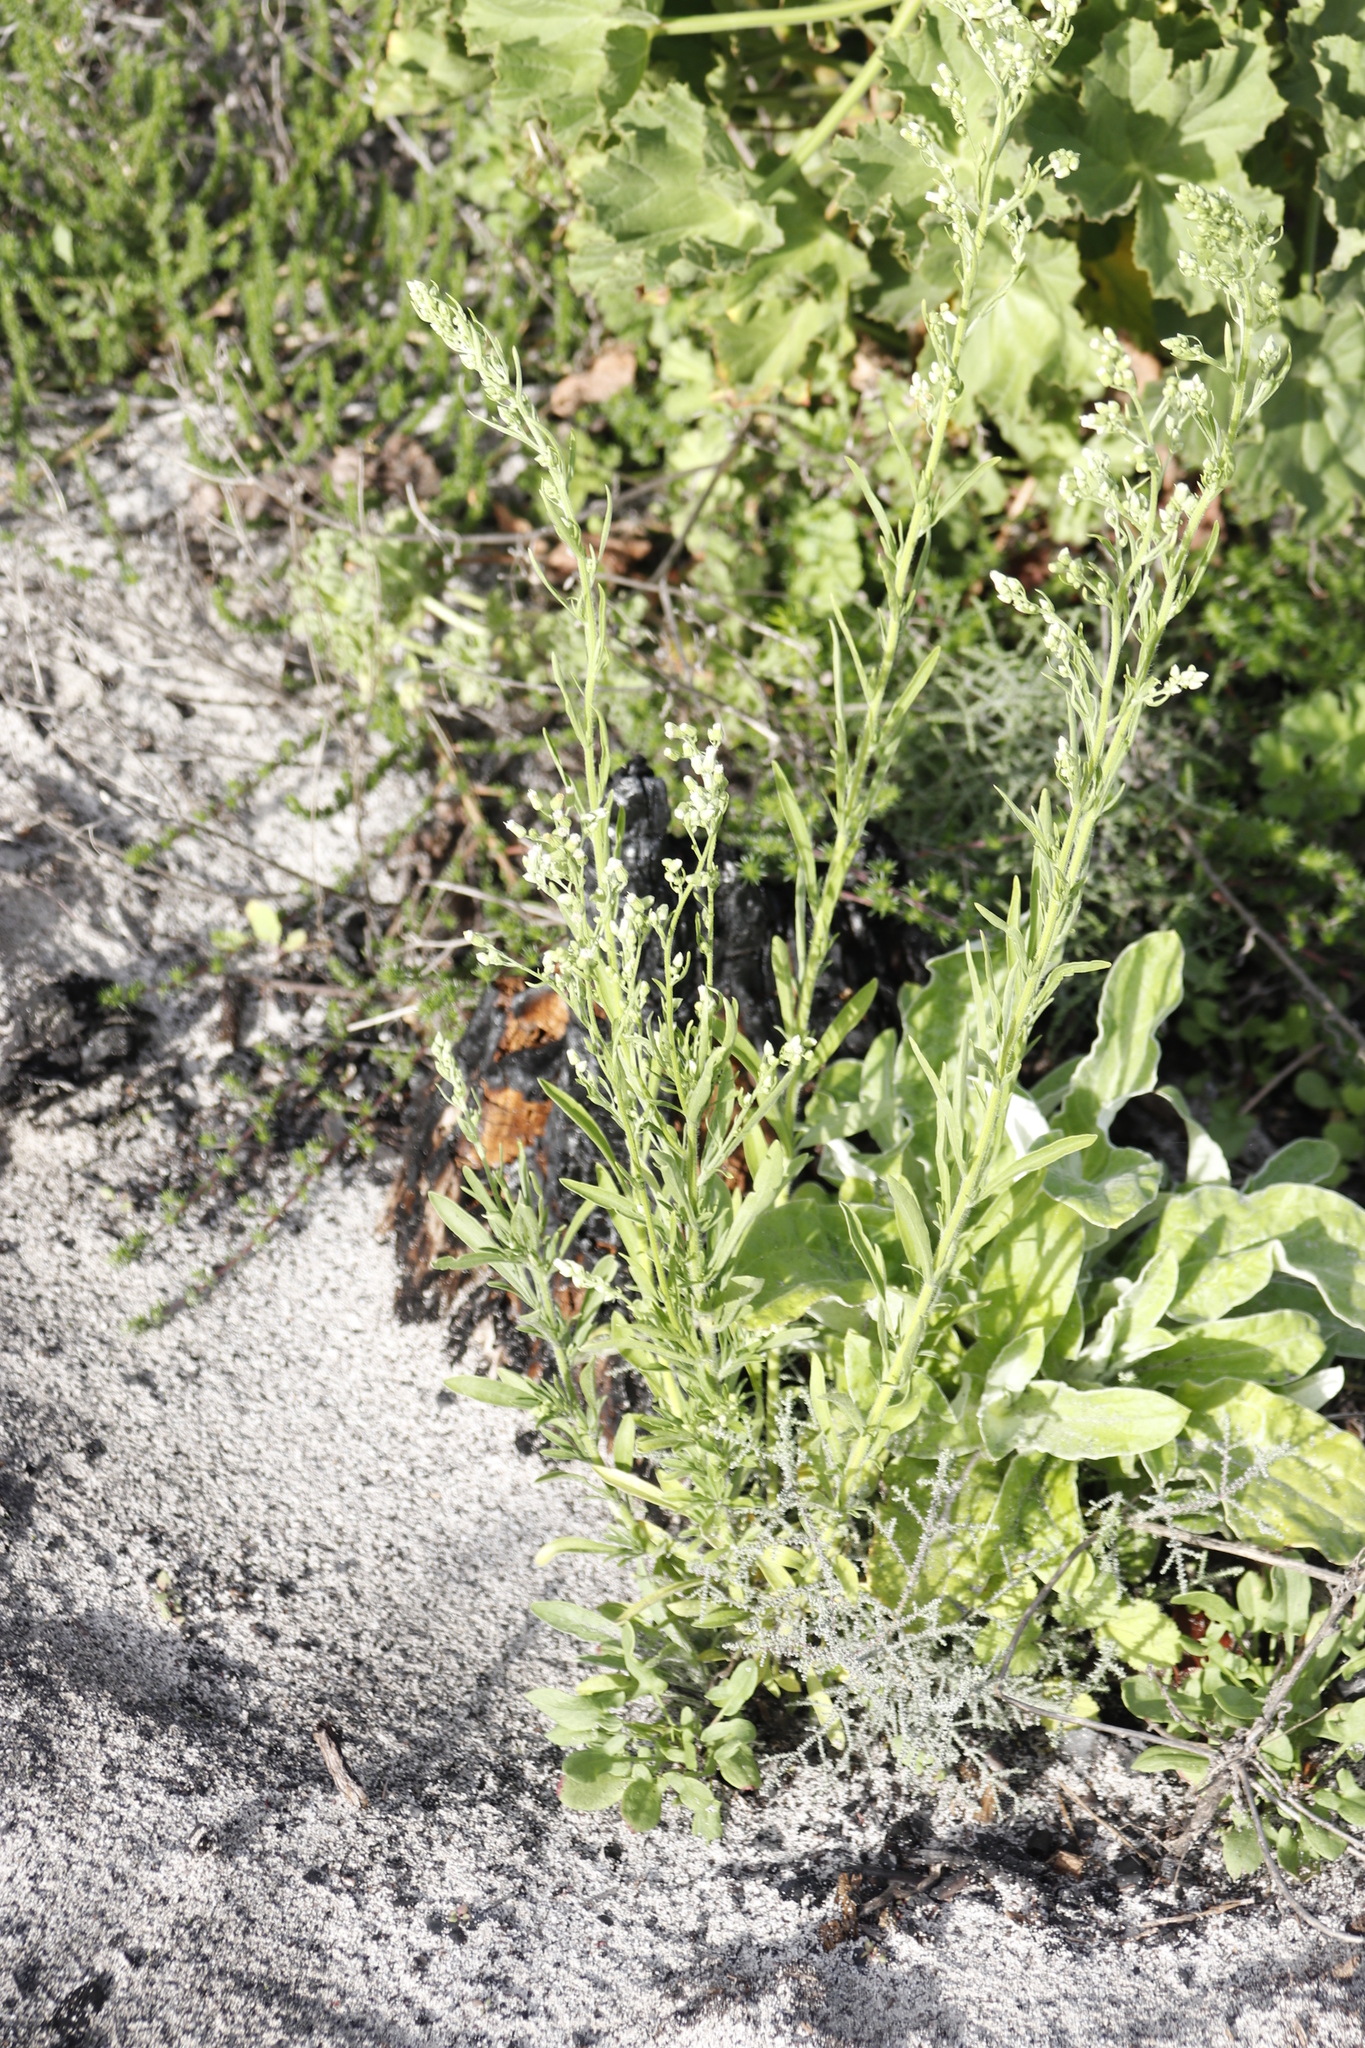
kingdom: Plantae
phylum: Tracheophyta
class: Magnoliopsida
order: Asterales
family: Asteraceae
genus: Erigeron
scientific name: Erigeron sumatrensis
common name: Daisy
